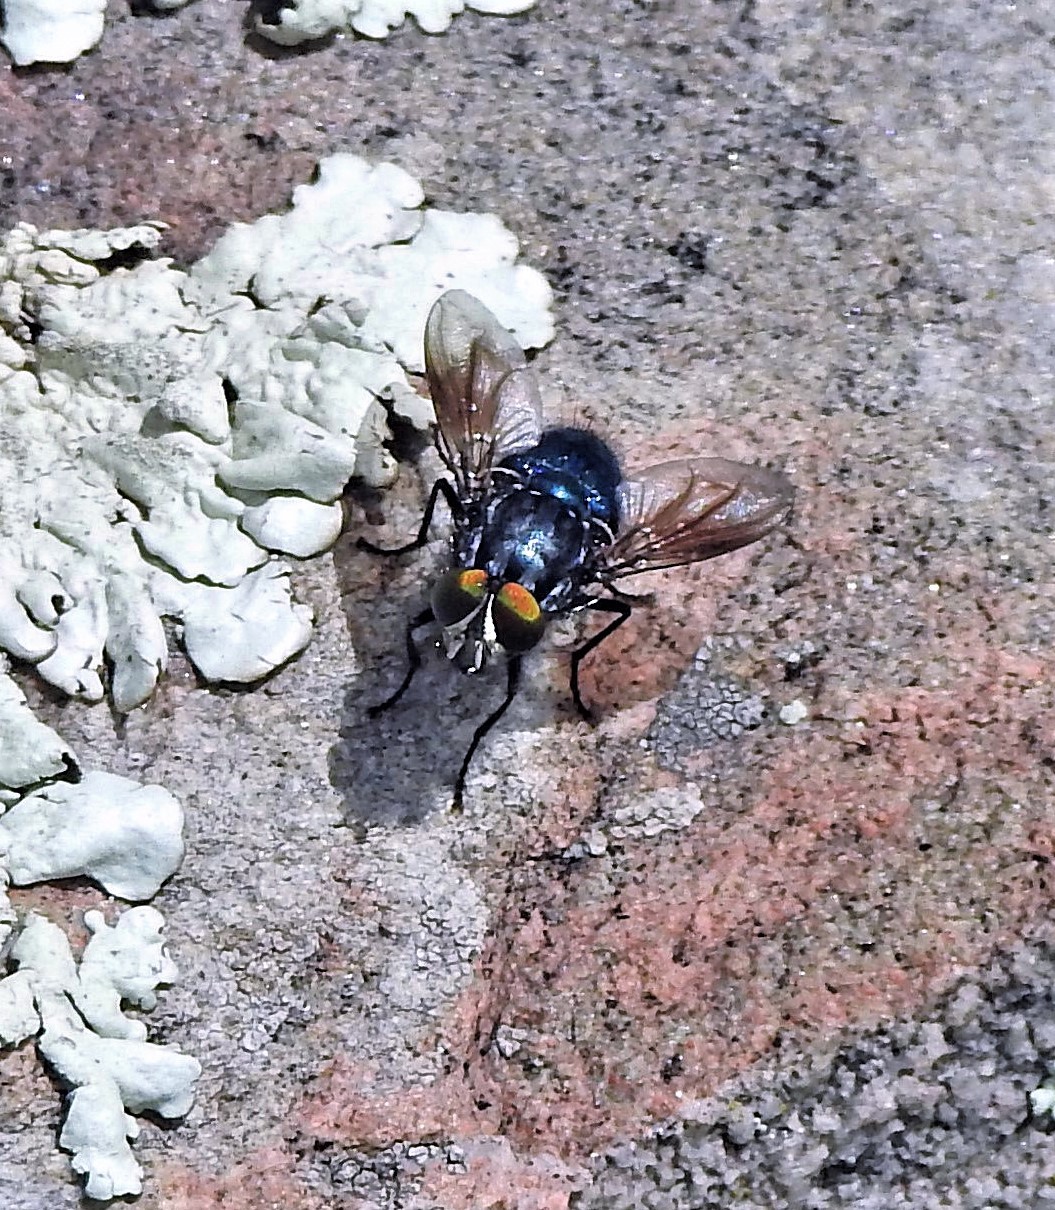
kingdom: Animalia
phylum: Arthropoda
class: Insecta
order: Diptera
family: Calliphoridae
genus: Sarconesia
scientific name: Sarconesia magellanica
